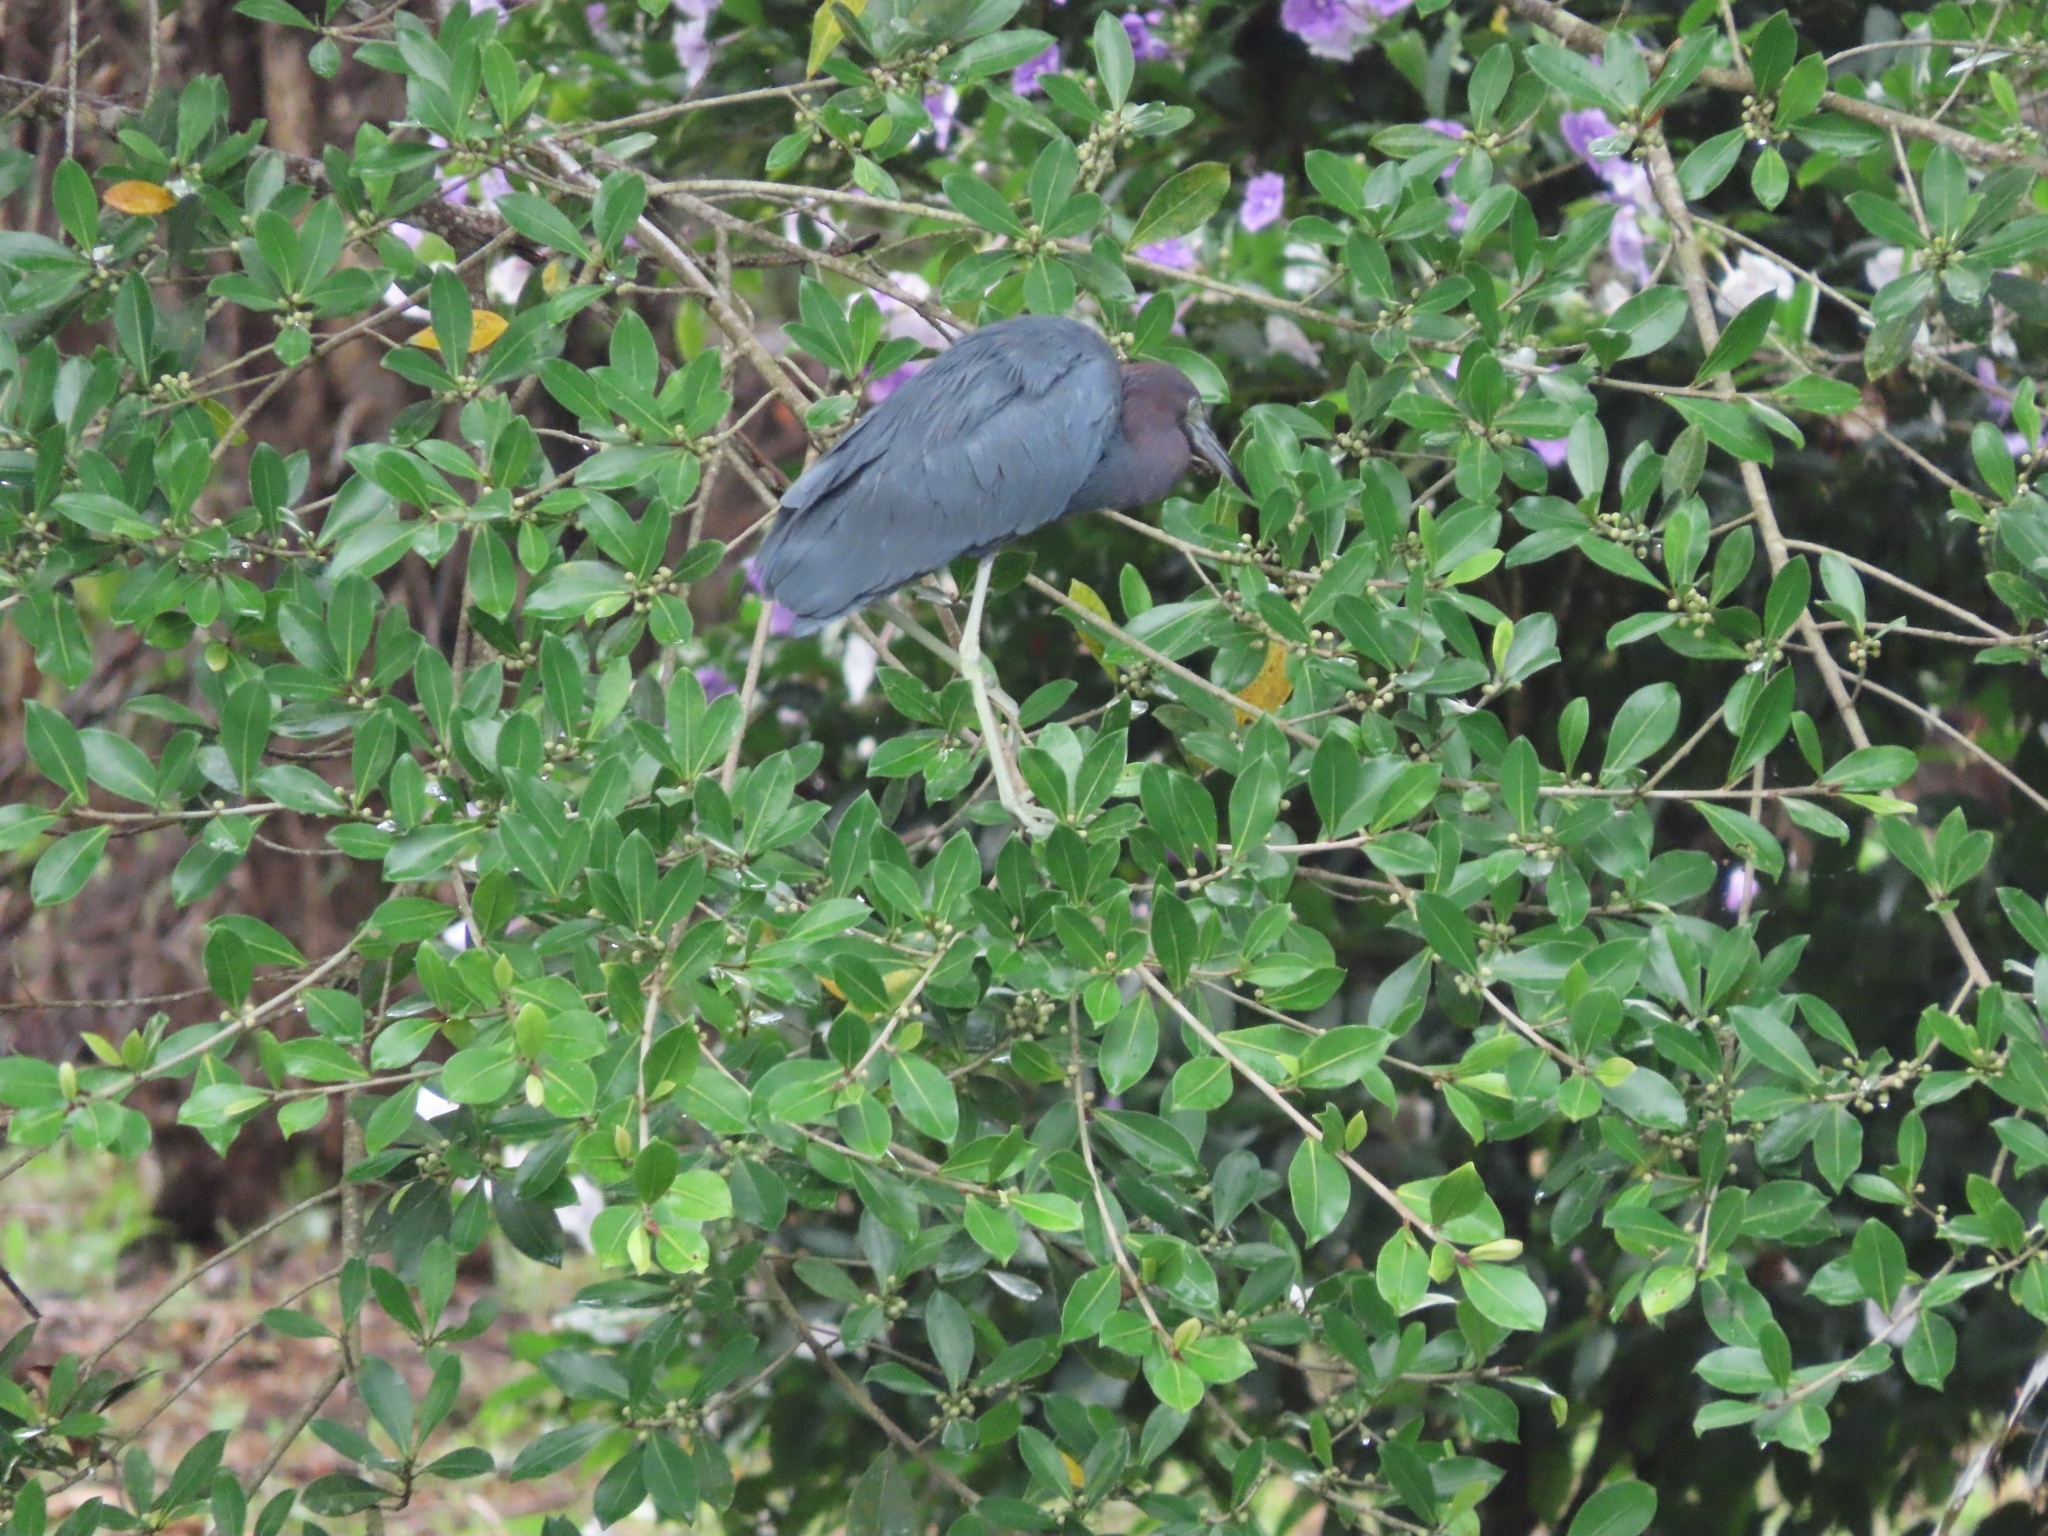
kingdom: Animalia
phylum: Chordata
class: Aves
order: Pelecaniformes
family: Ardeidae
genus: Egretta
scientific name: Egretta caerulea
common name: Little blue heron
